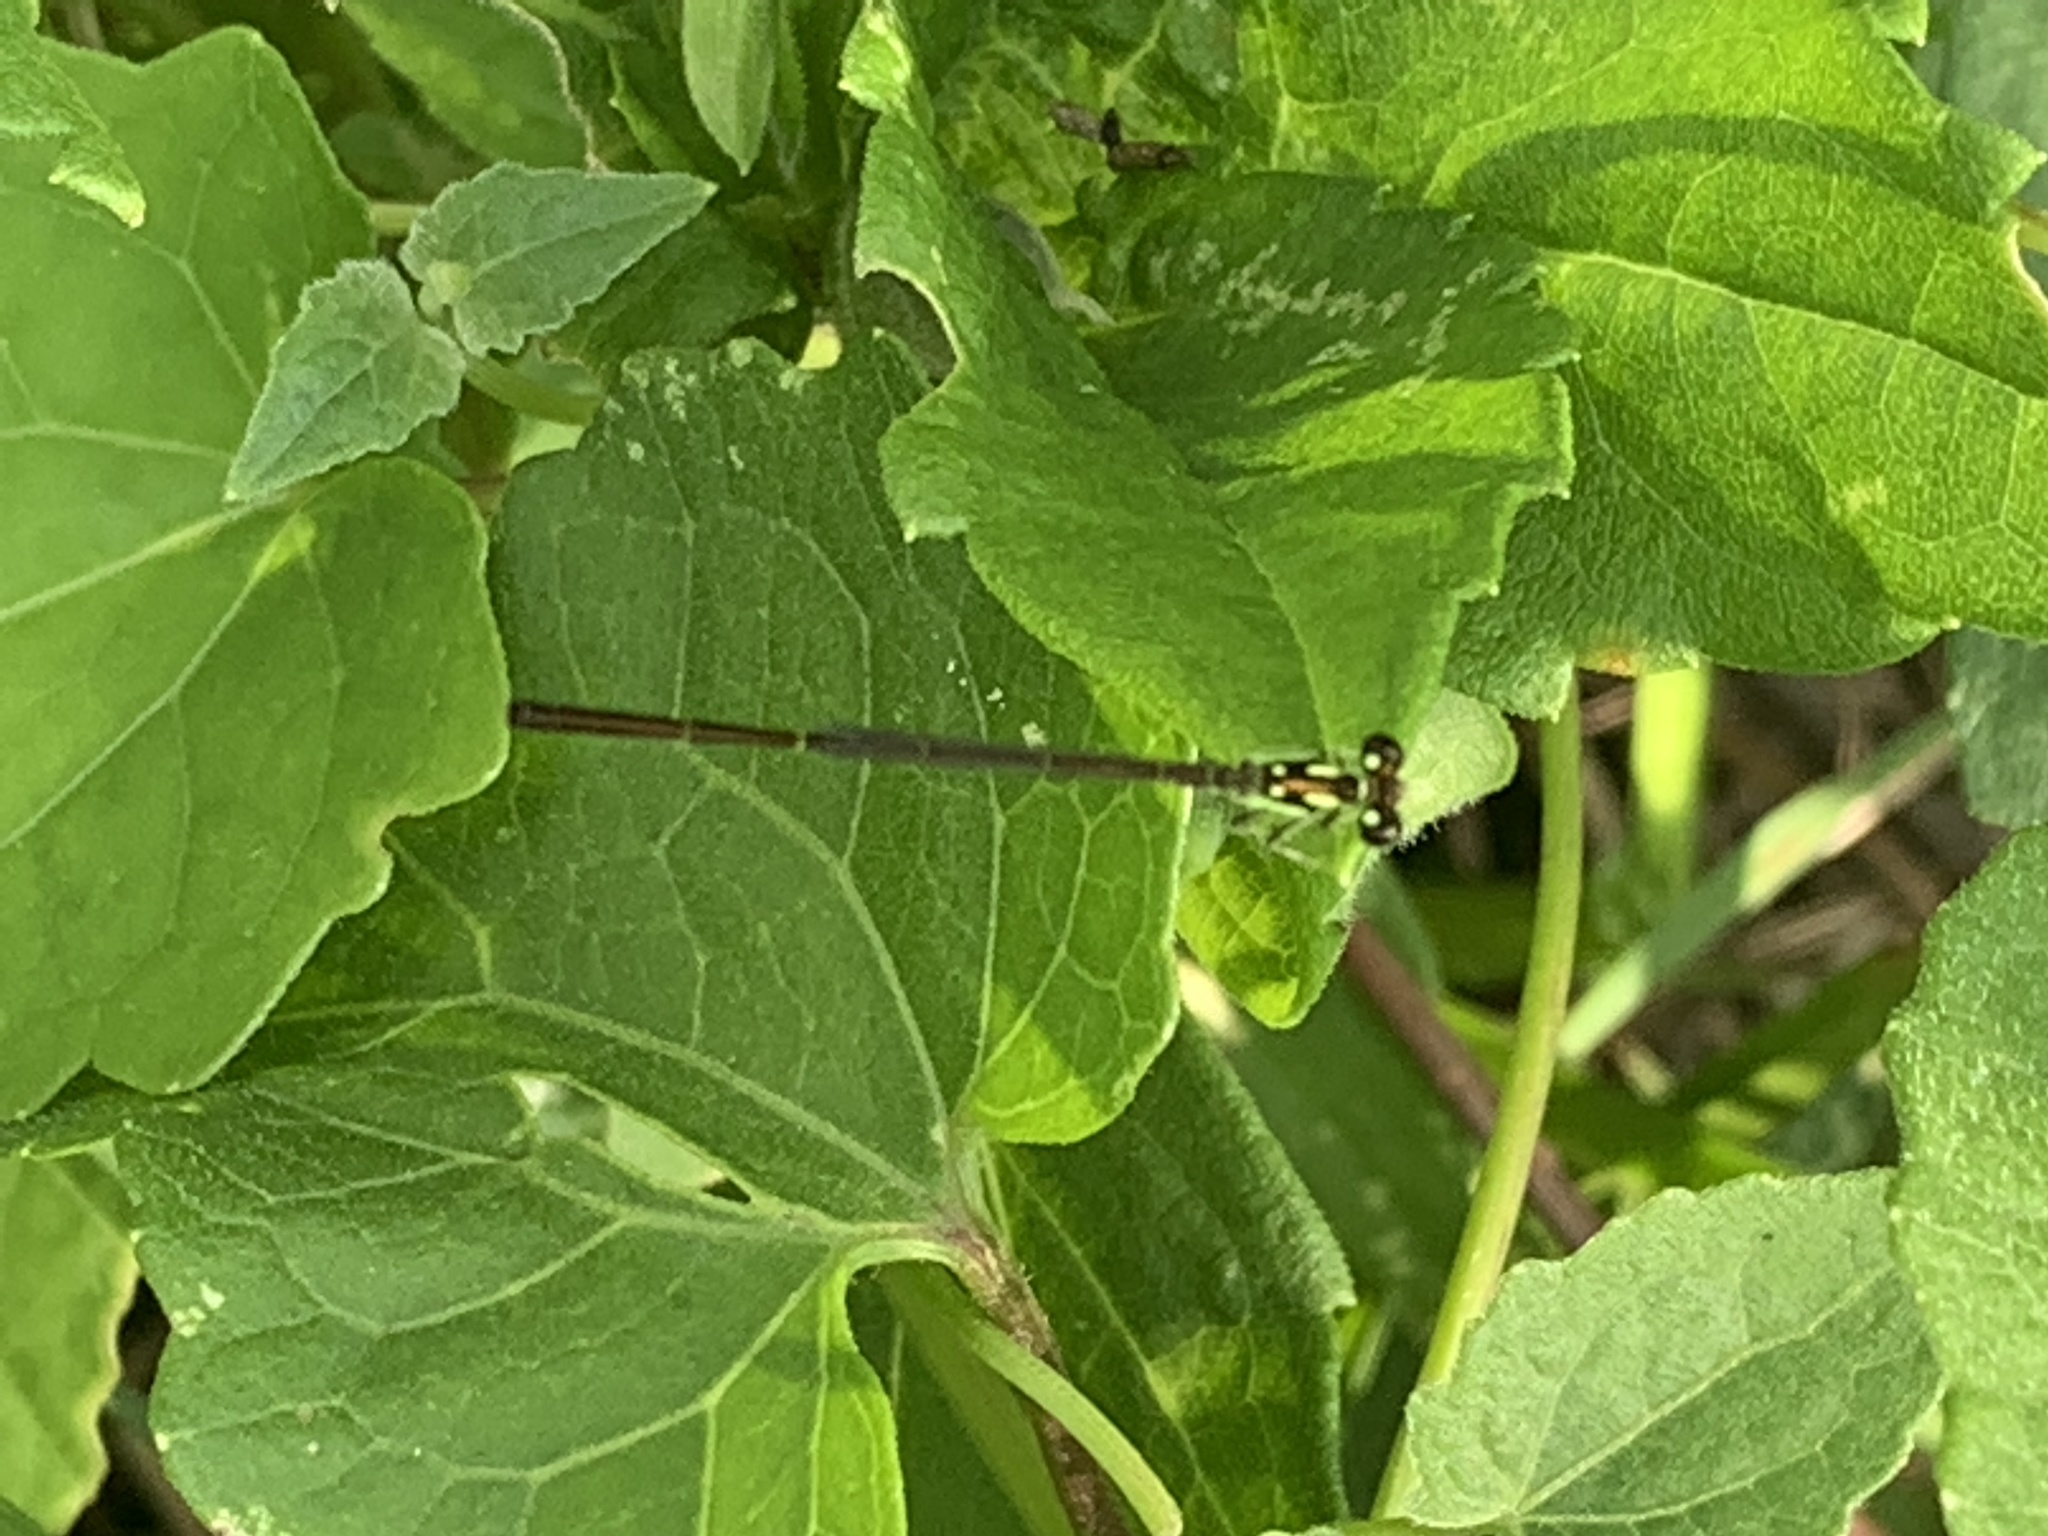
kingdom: Animalia
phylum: Arthropoda
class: Insecta
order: Odonata
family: Coenagrionidae
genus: Ischnura
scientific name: Ischnura posita
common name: Fragile forktail
